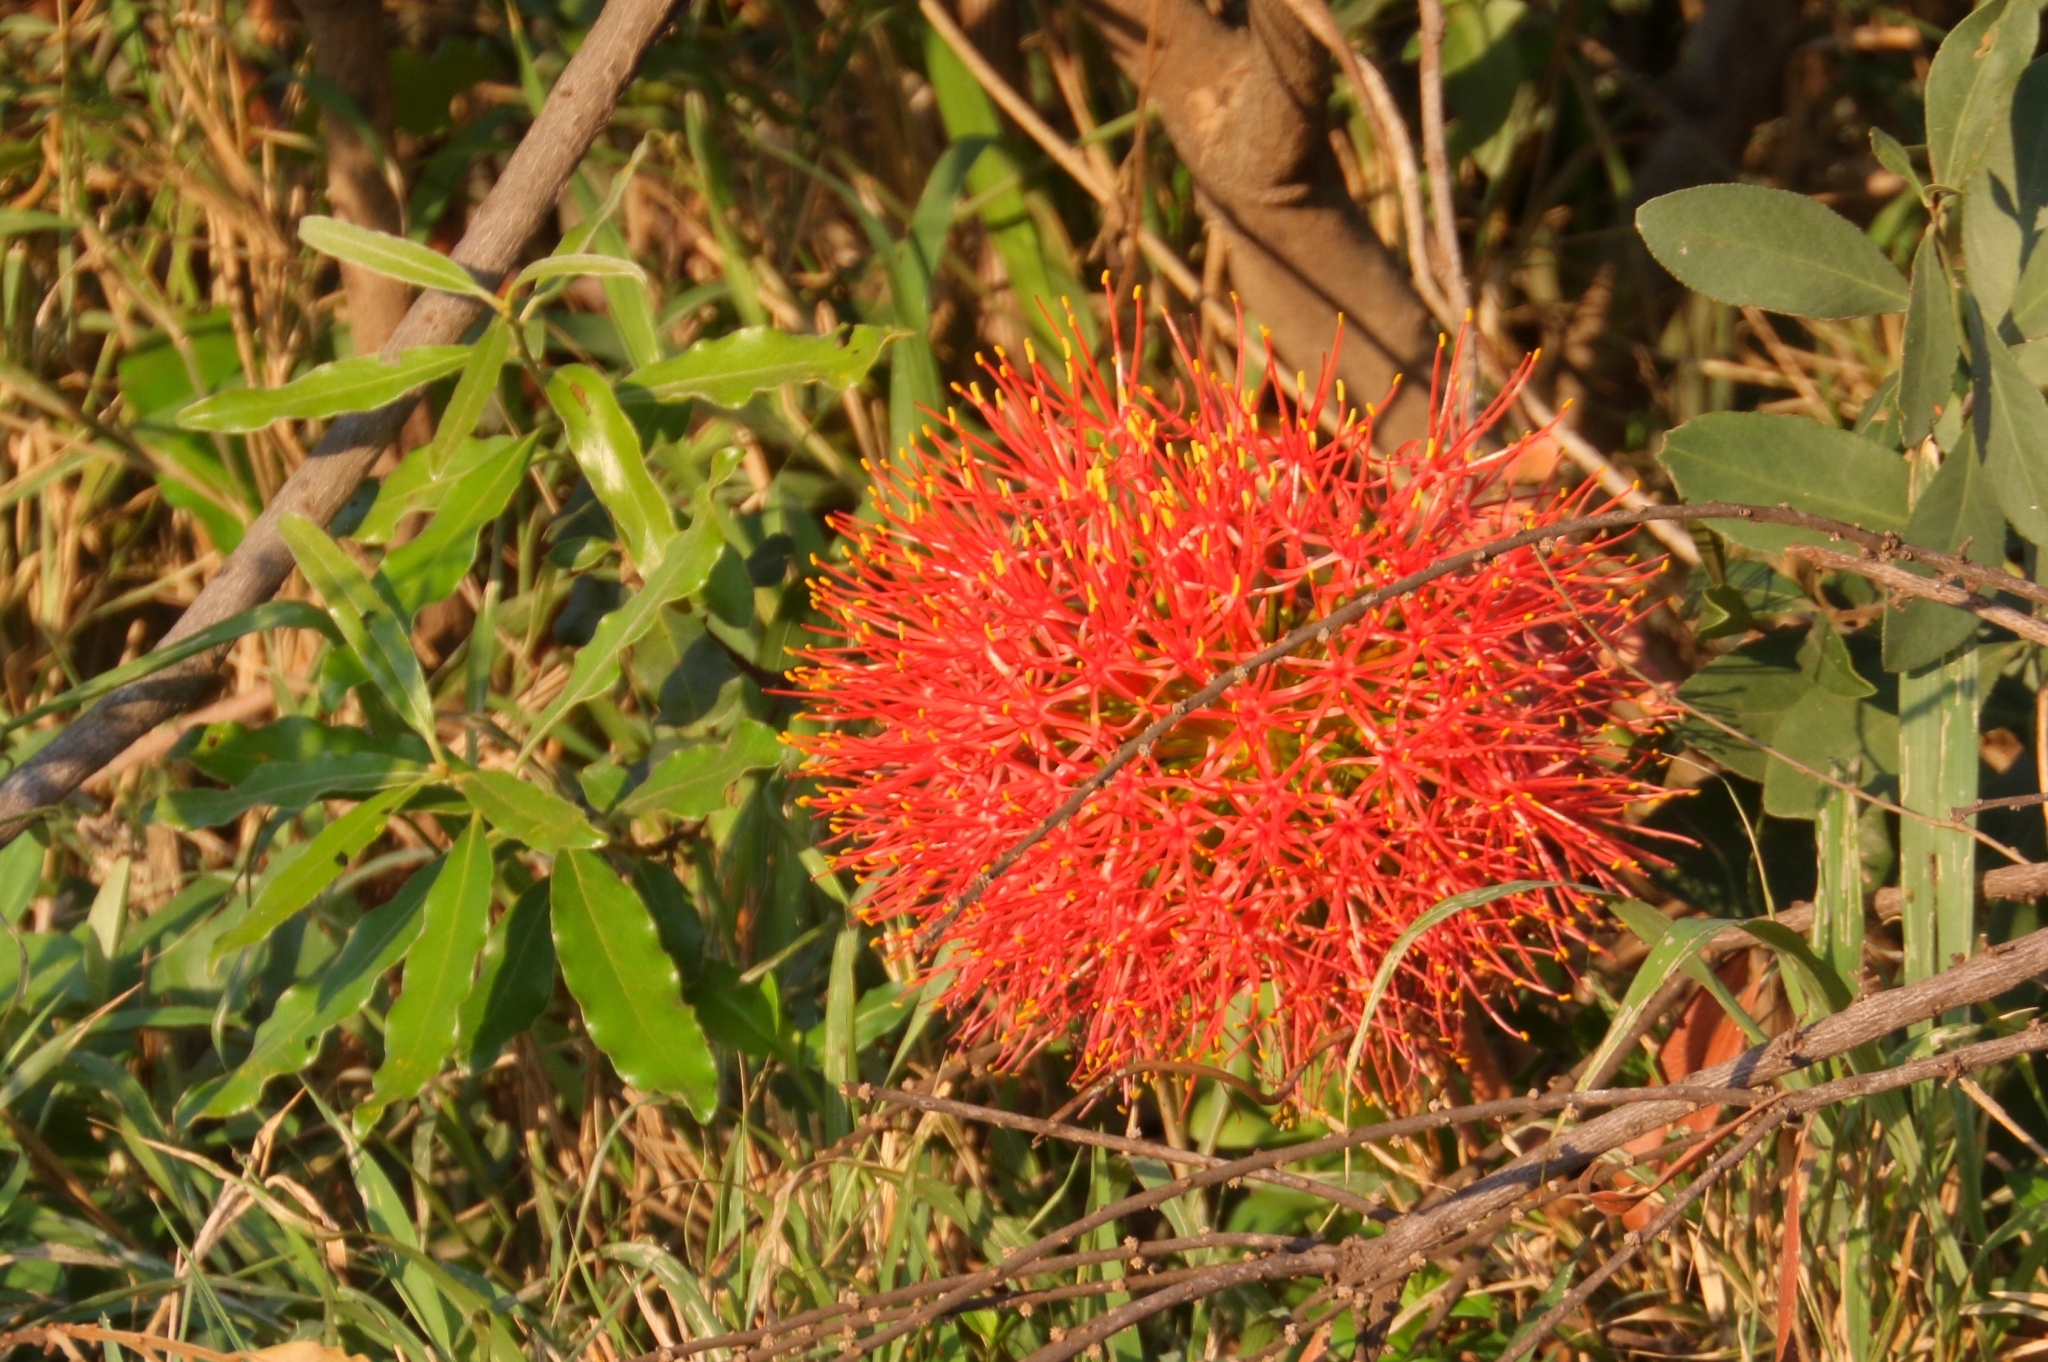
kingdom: Plantae
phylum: Tracheophyta
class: Liliopsida
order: Asparagales
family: Amaryllidaceae
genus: Scadoxus
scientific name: Scadoxus multiflorus
